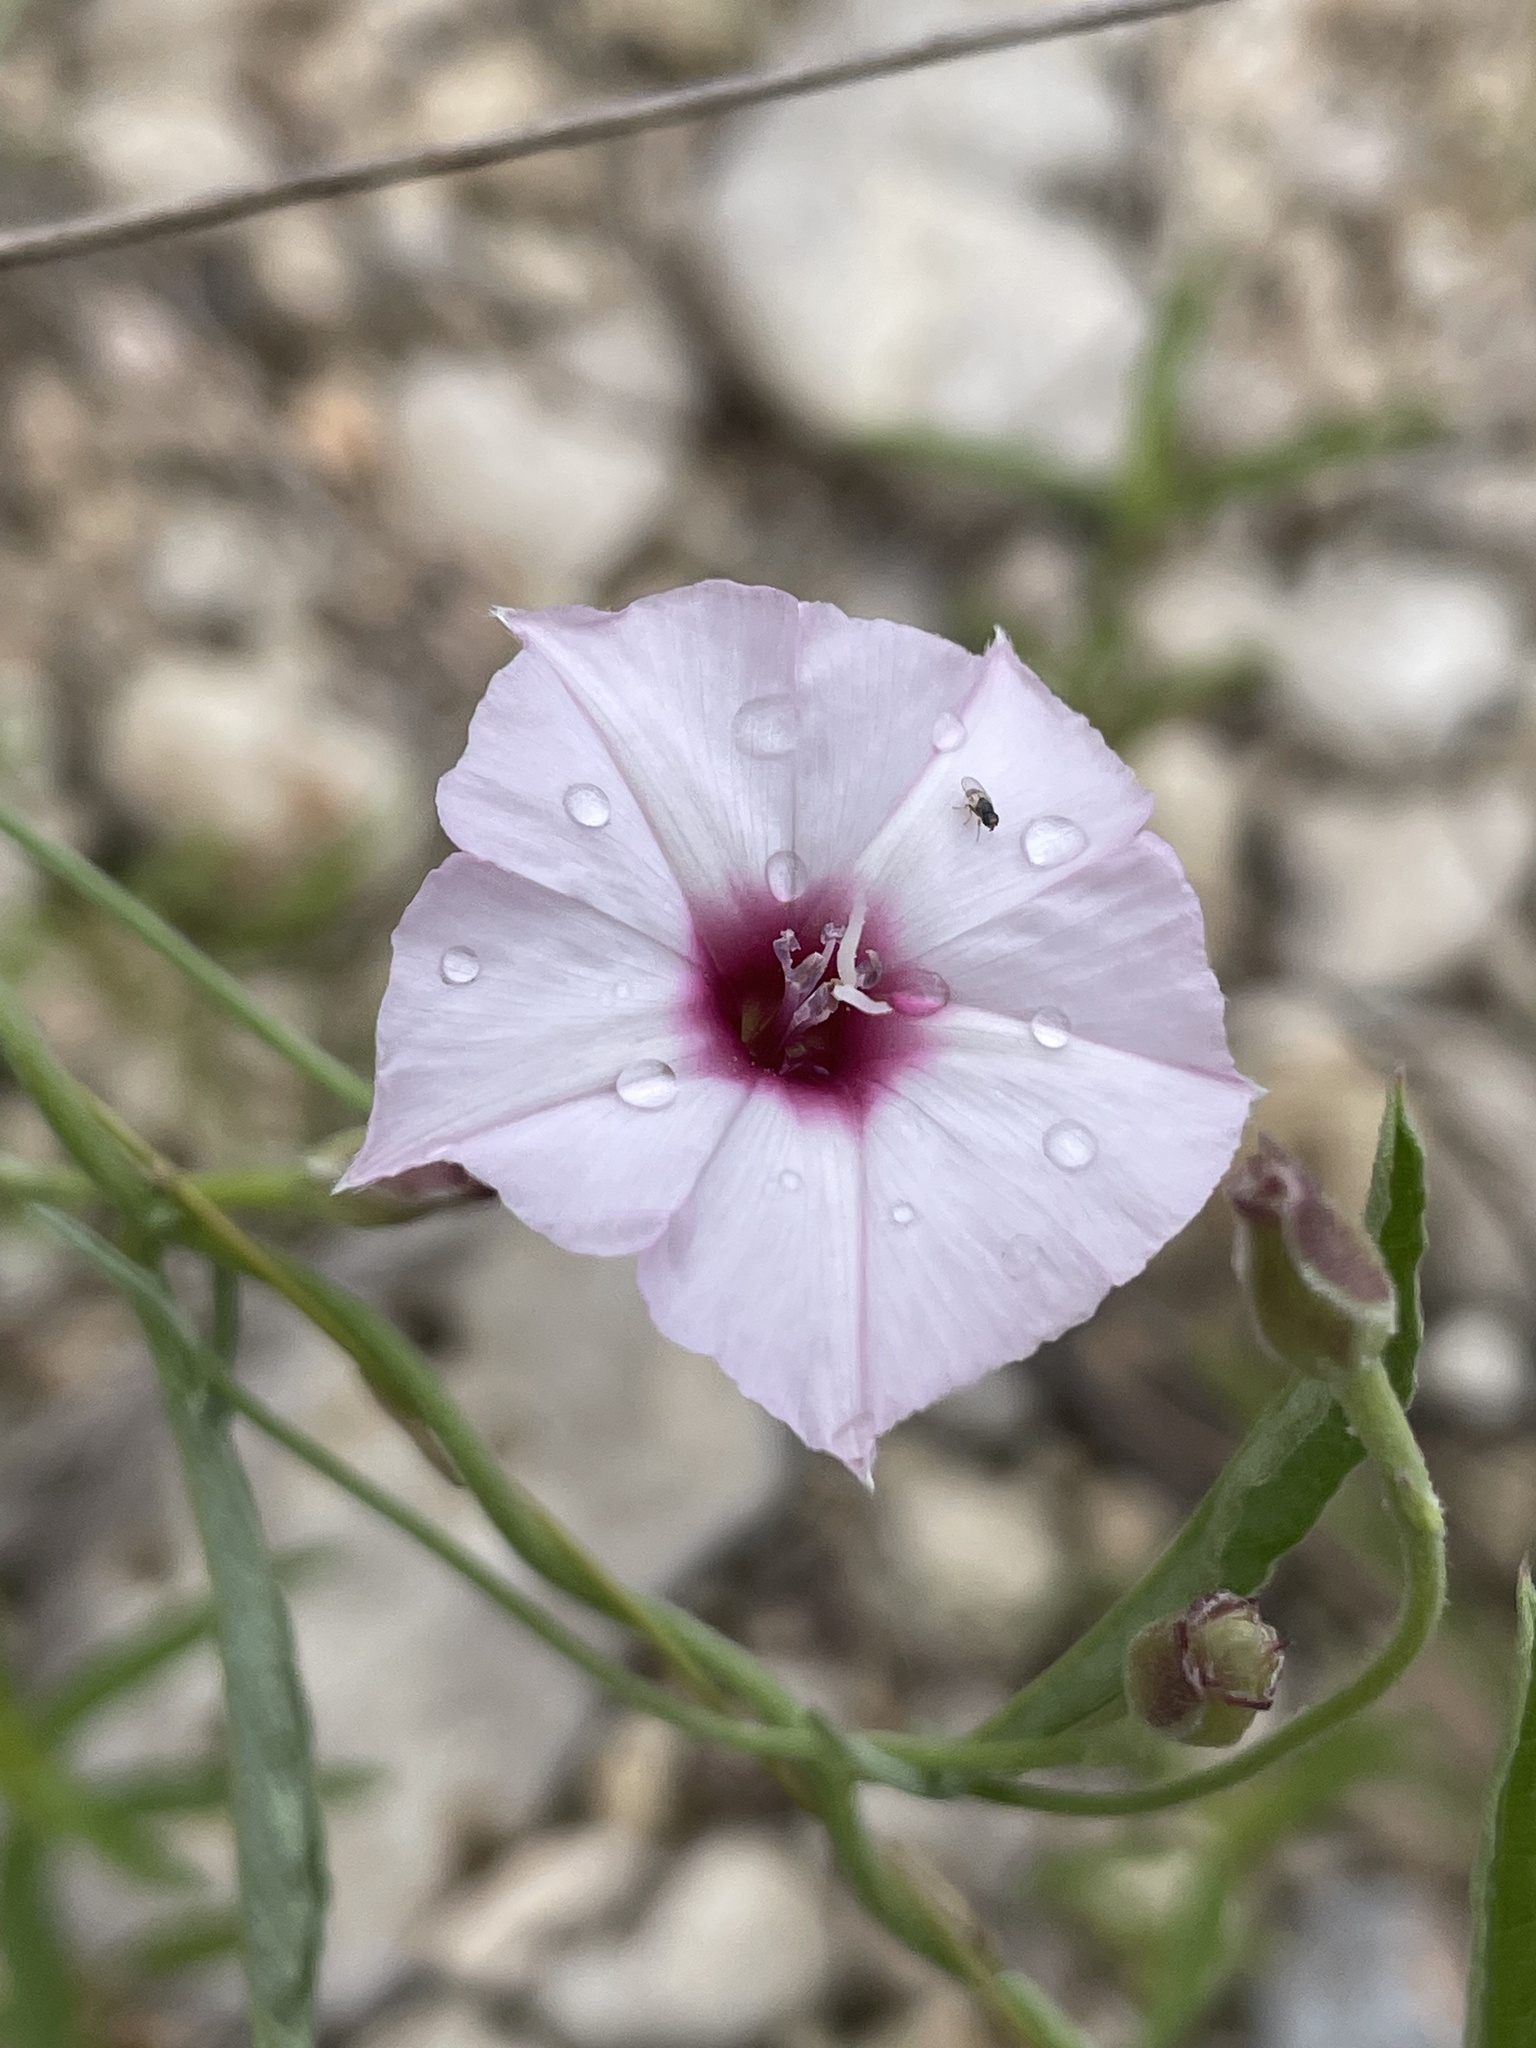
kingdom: Plantae
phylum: Tracheophyta
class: Magnoliopsida
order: Solanales
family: Convolvulaceae
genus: Convolvulus
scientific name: Convolvulus equitans
